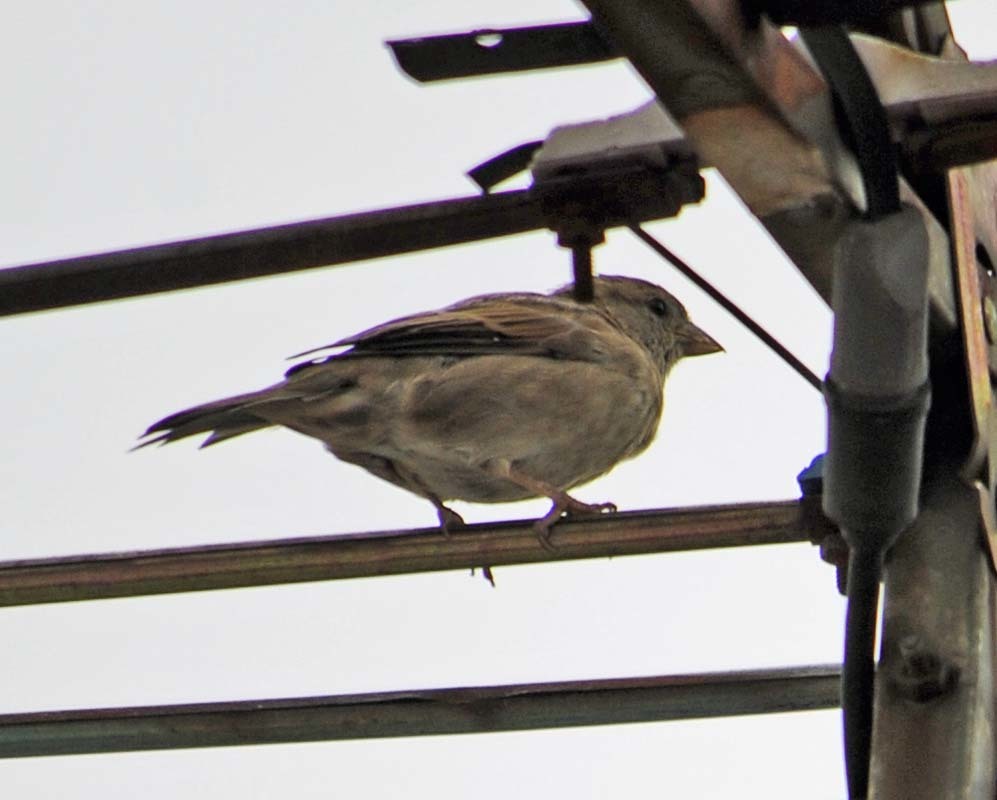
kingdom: Animalia
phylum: Chordata
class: Aves
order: Passeriformes
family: Passeridae
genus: Passer
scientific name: Passer domesticus
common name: House sparrow
